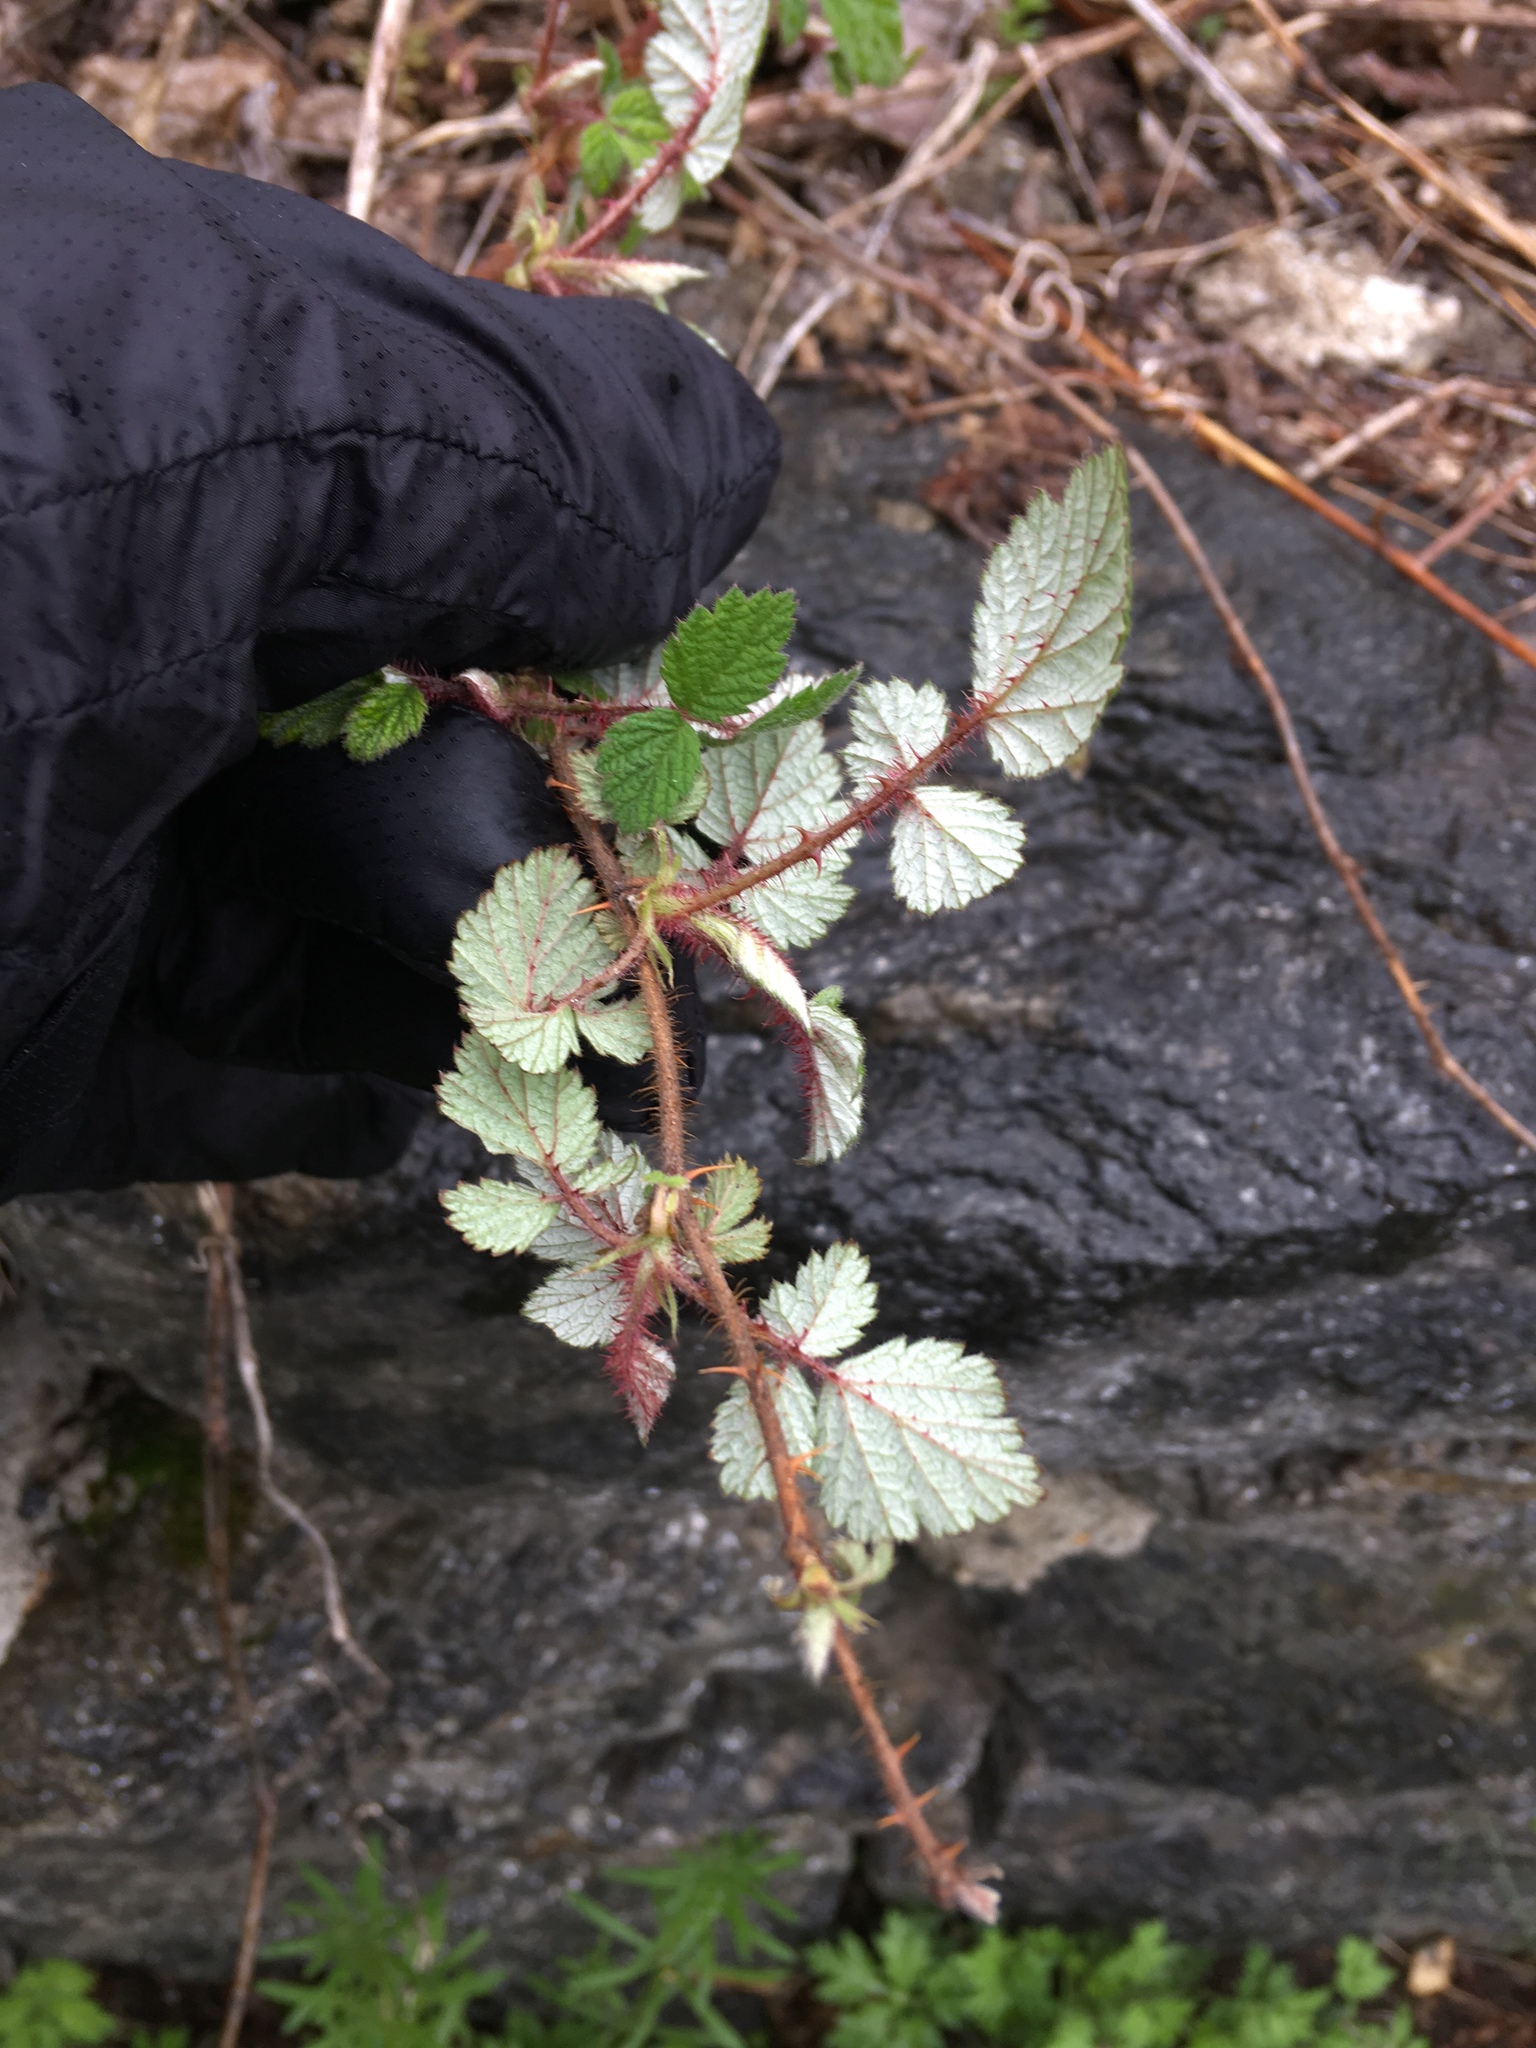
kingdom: Plantae
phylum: Tracheophyta
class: Magnoliopsida
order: Rosales
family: Rosaceae
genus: Rubus
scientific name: Rubus phoenicolasius
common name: Japanese wineberry
